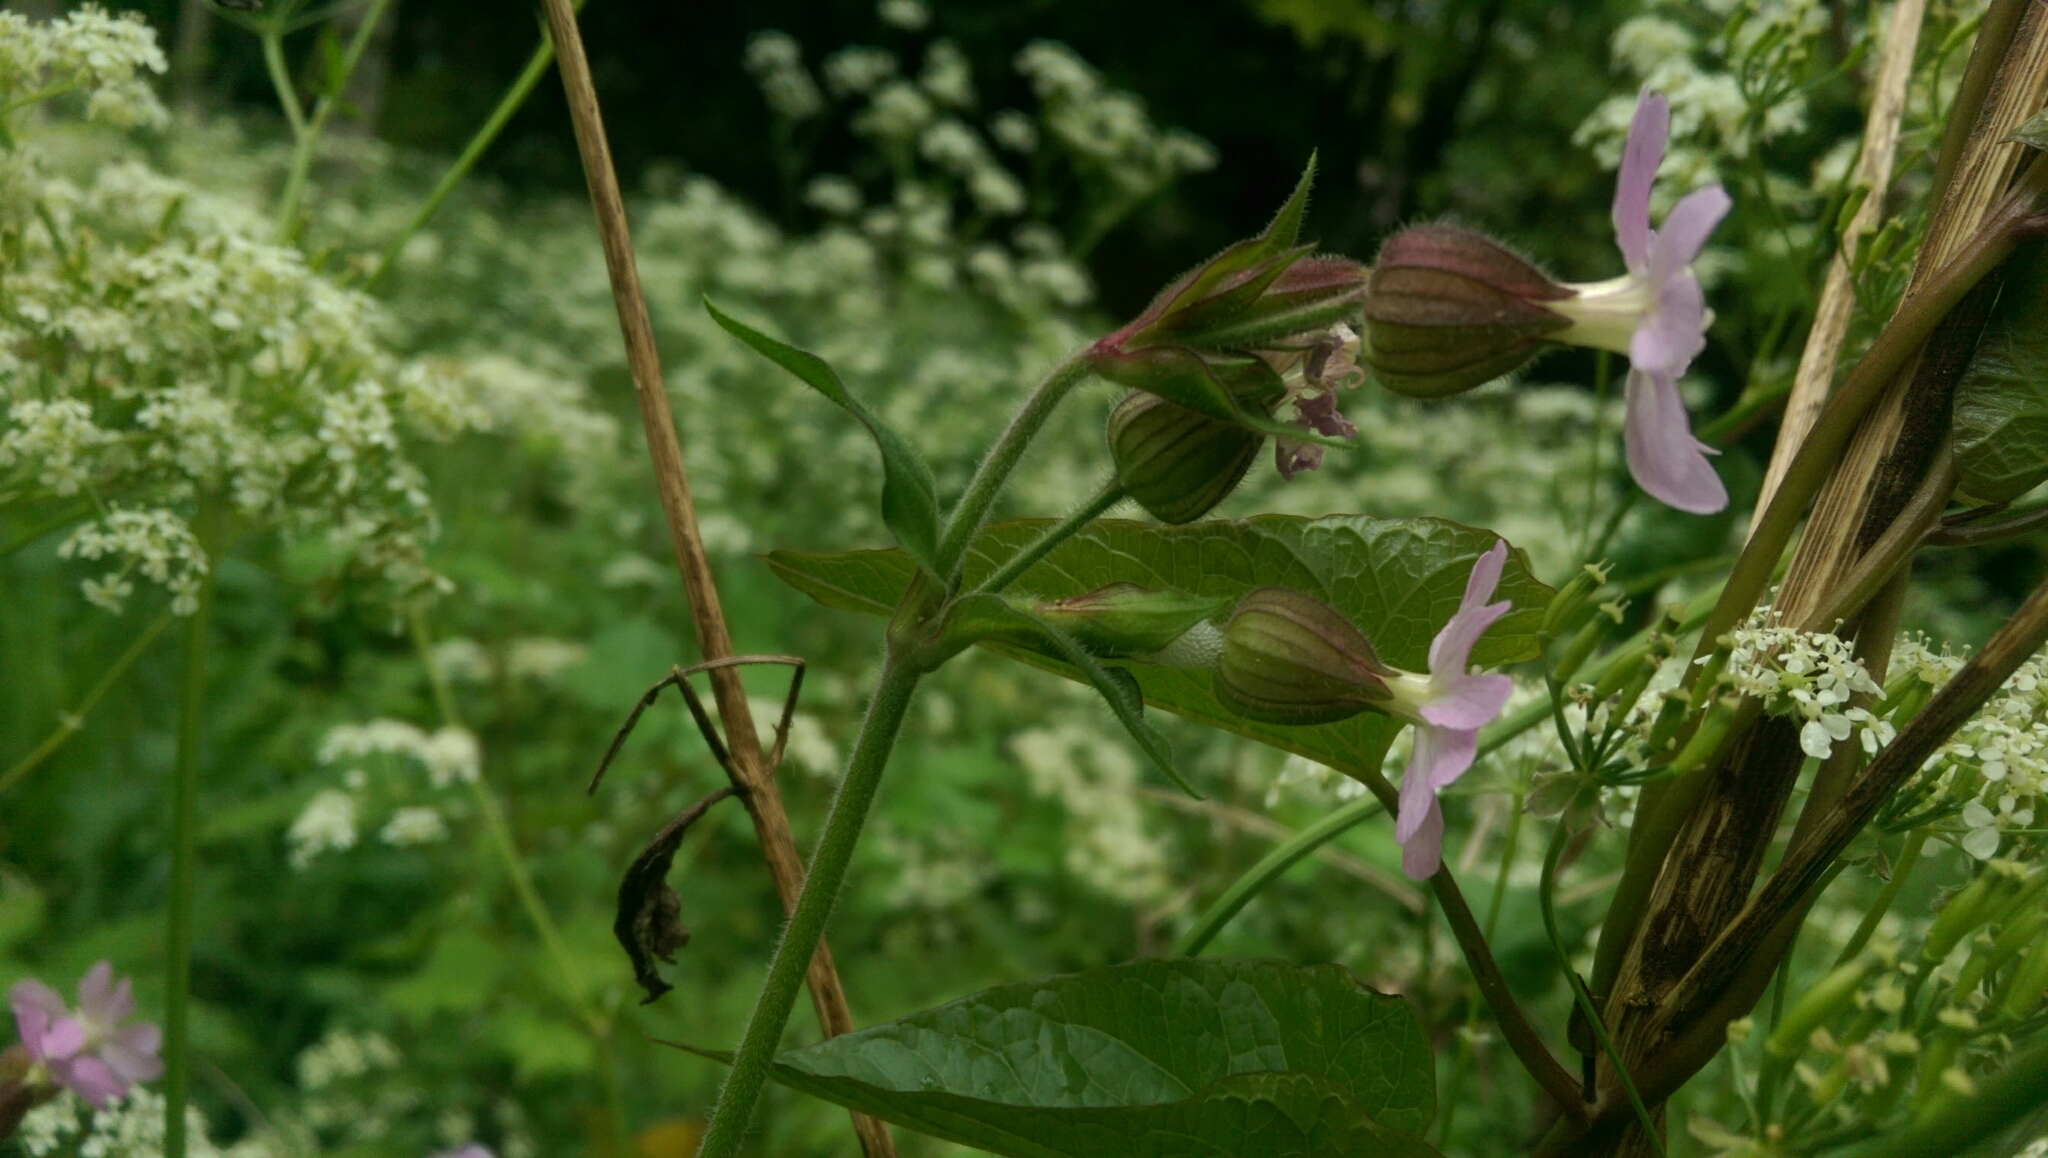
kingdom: Plantae
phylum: Tracheophyta
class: Magnoliopsida
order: Caryophyllales
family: Caryophyllaceae
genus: Silene
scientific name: Silene dioica
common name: Red campion
